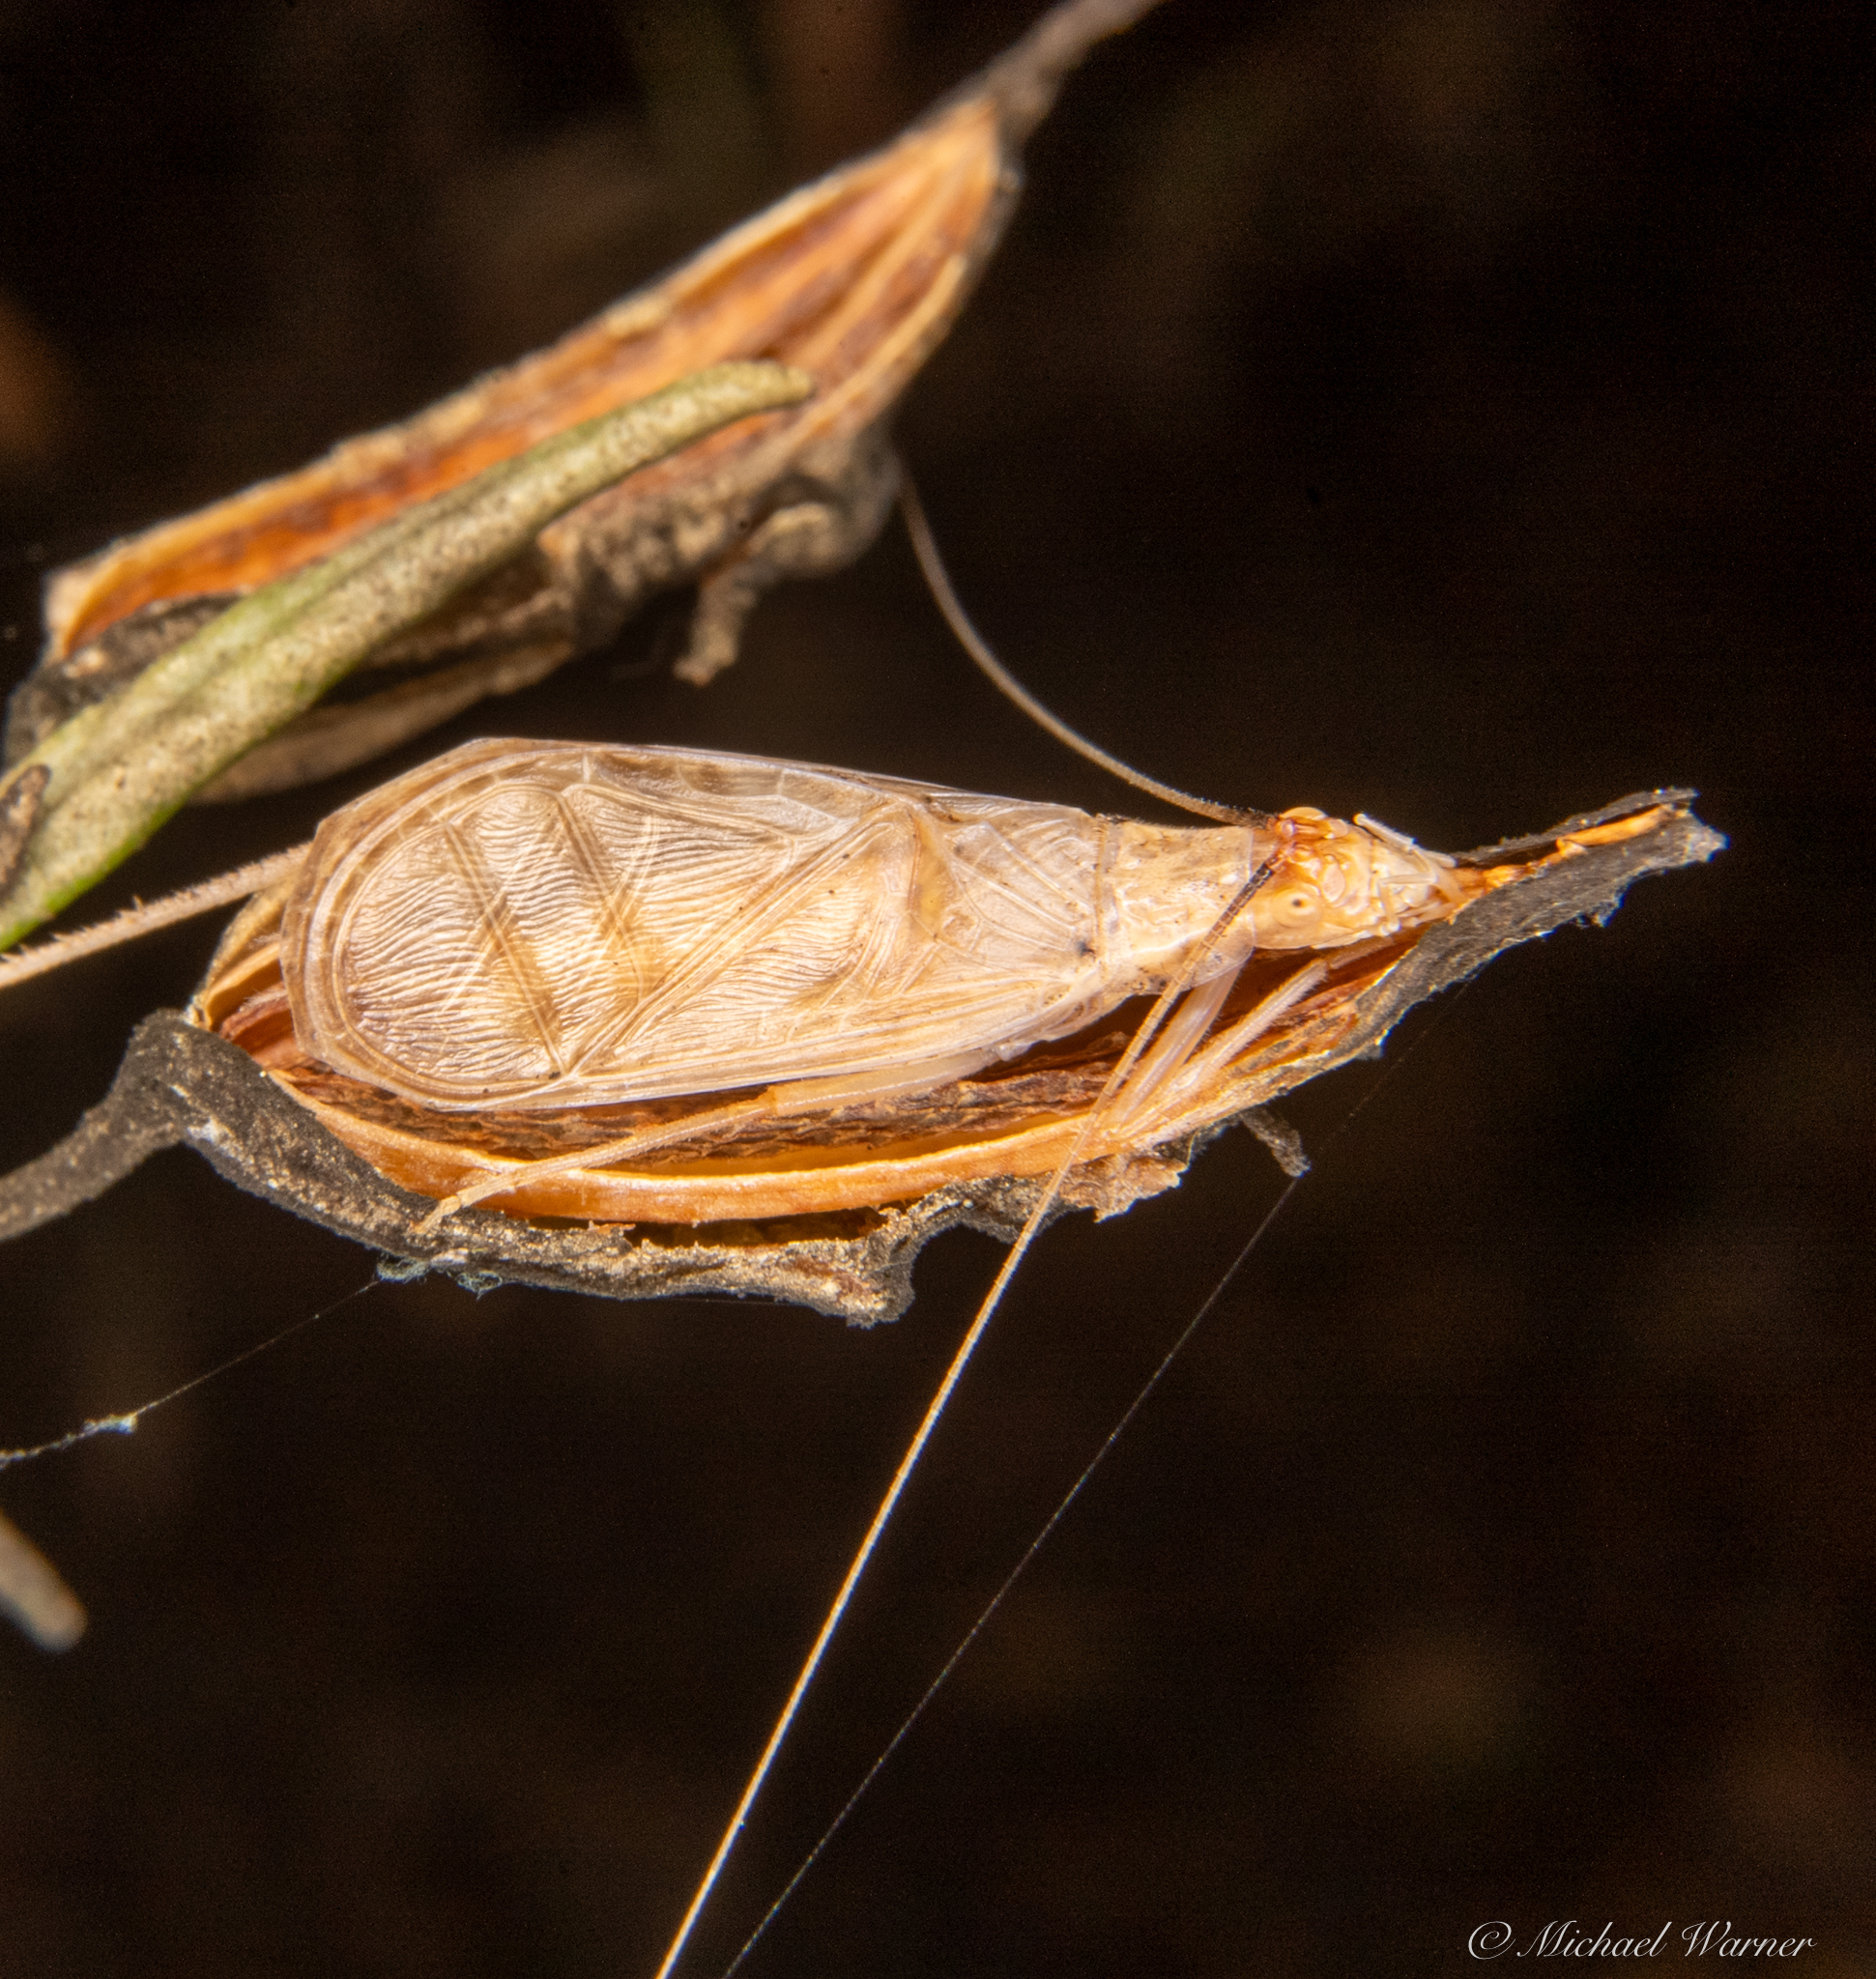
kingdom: Animalia
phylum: Arthropoda
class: Insecta
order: Orthoptera
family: Gryllidae
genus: Oecanthus
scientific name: Oecanthus californicus
